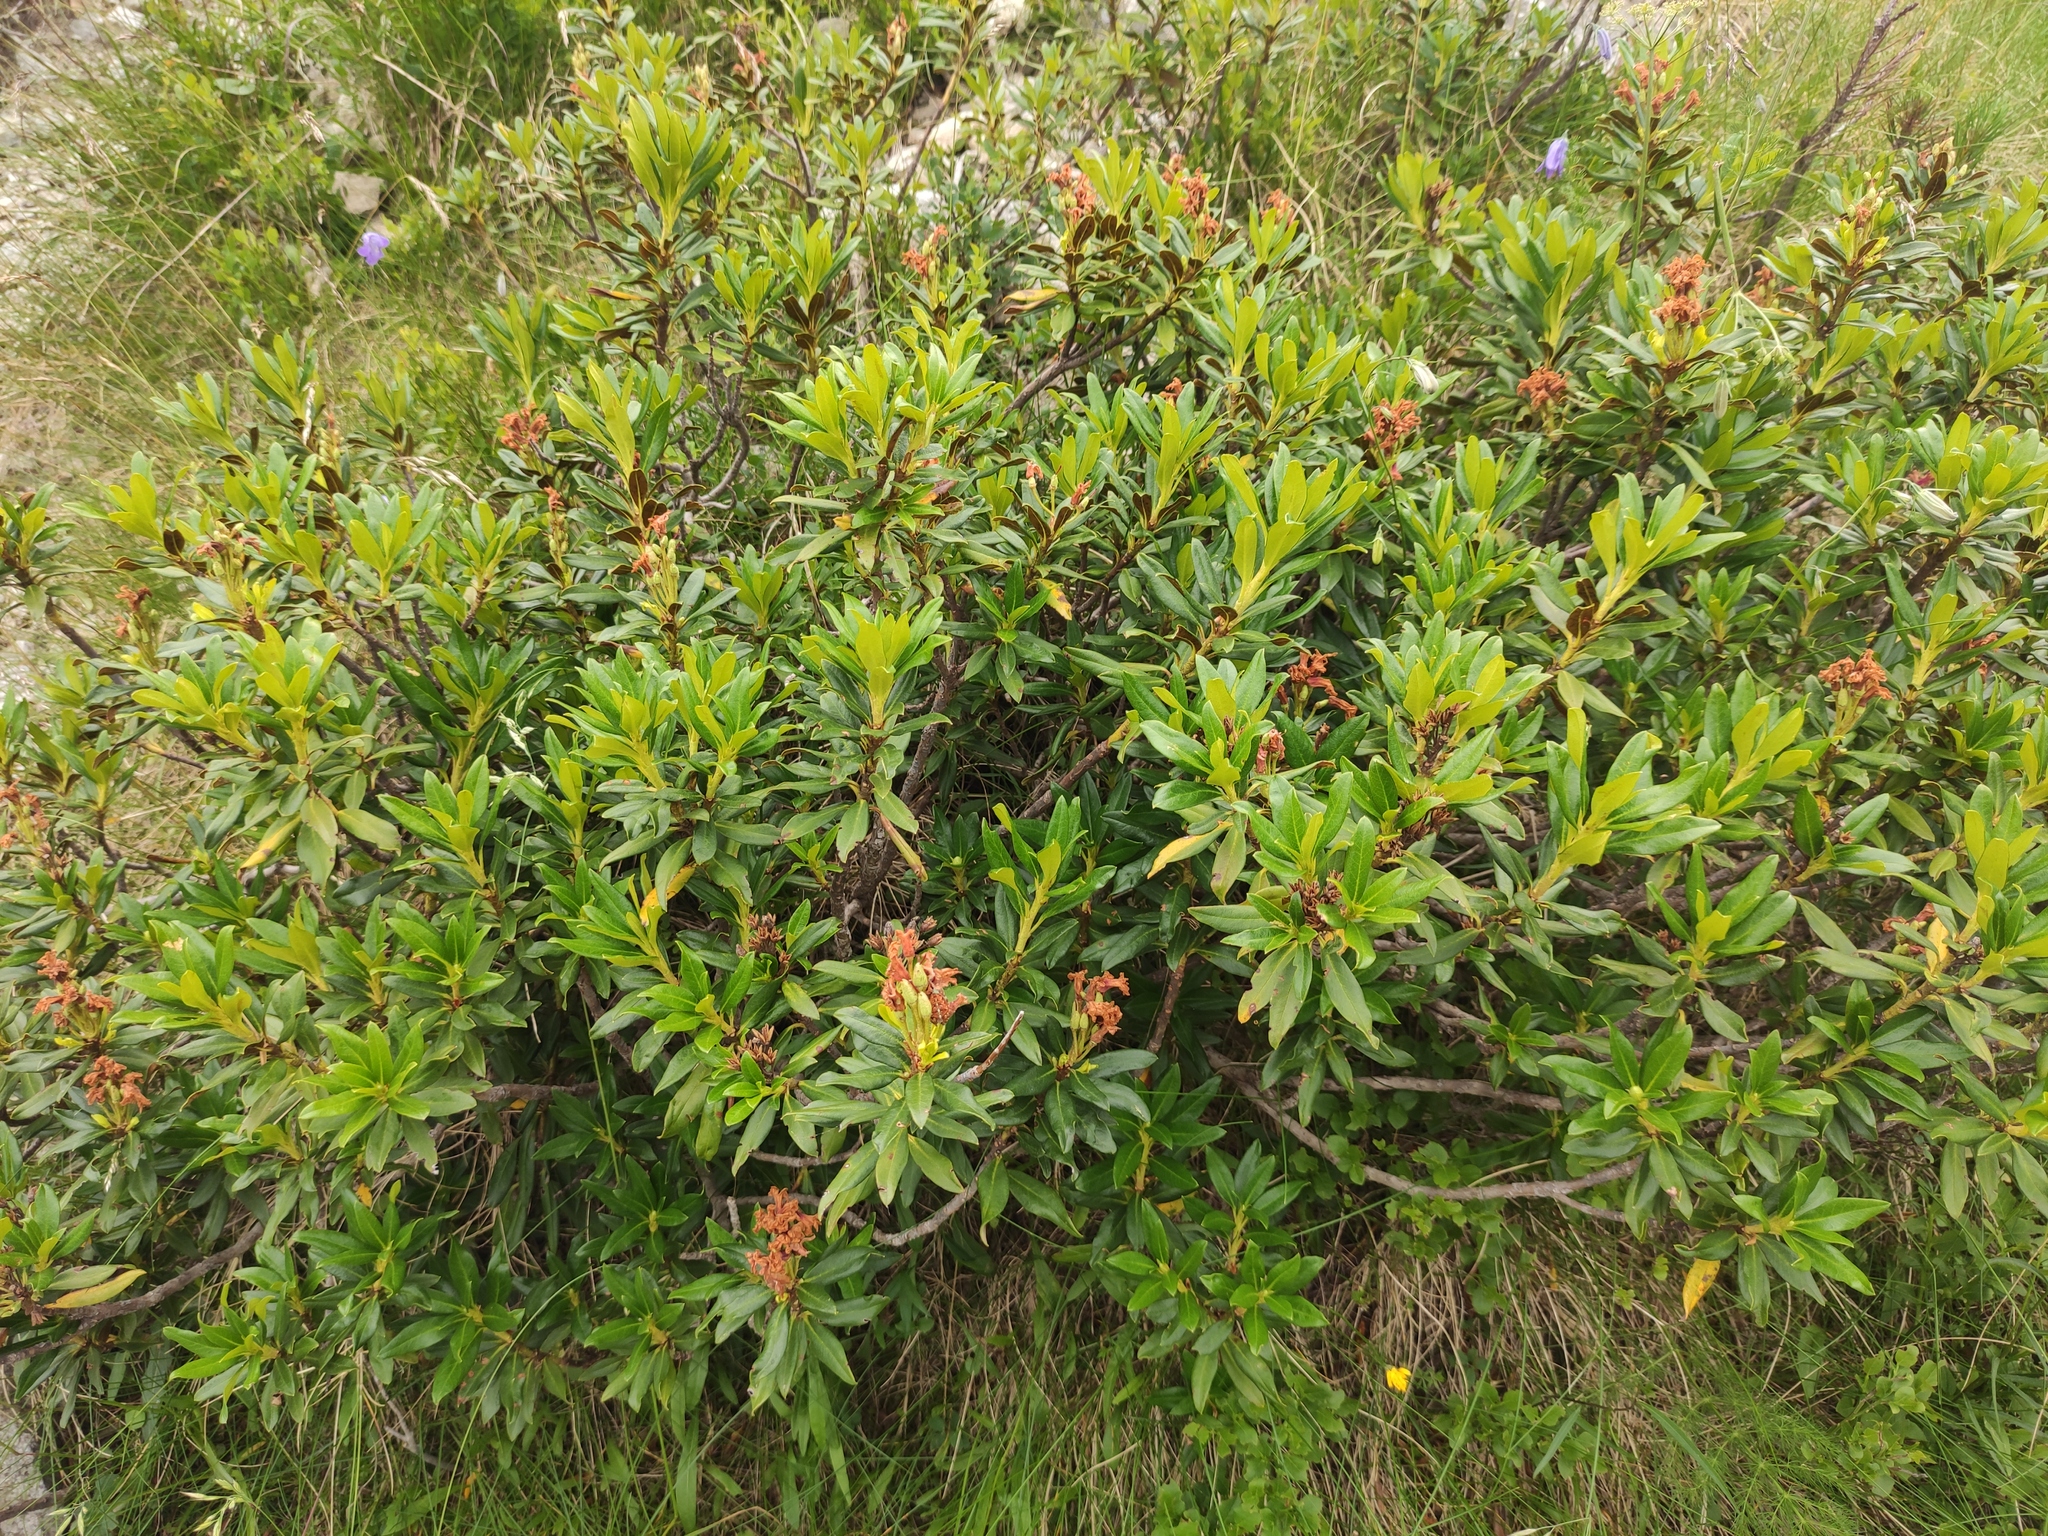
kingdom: Plantae
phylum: Tracheophyta
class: Magnoliopsida
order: Ericales
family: Ericaceae
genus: Rhododendron
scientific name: Rhododendron ferrugineum
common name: Alpenrose
